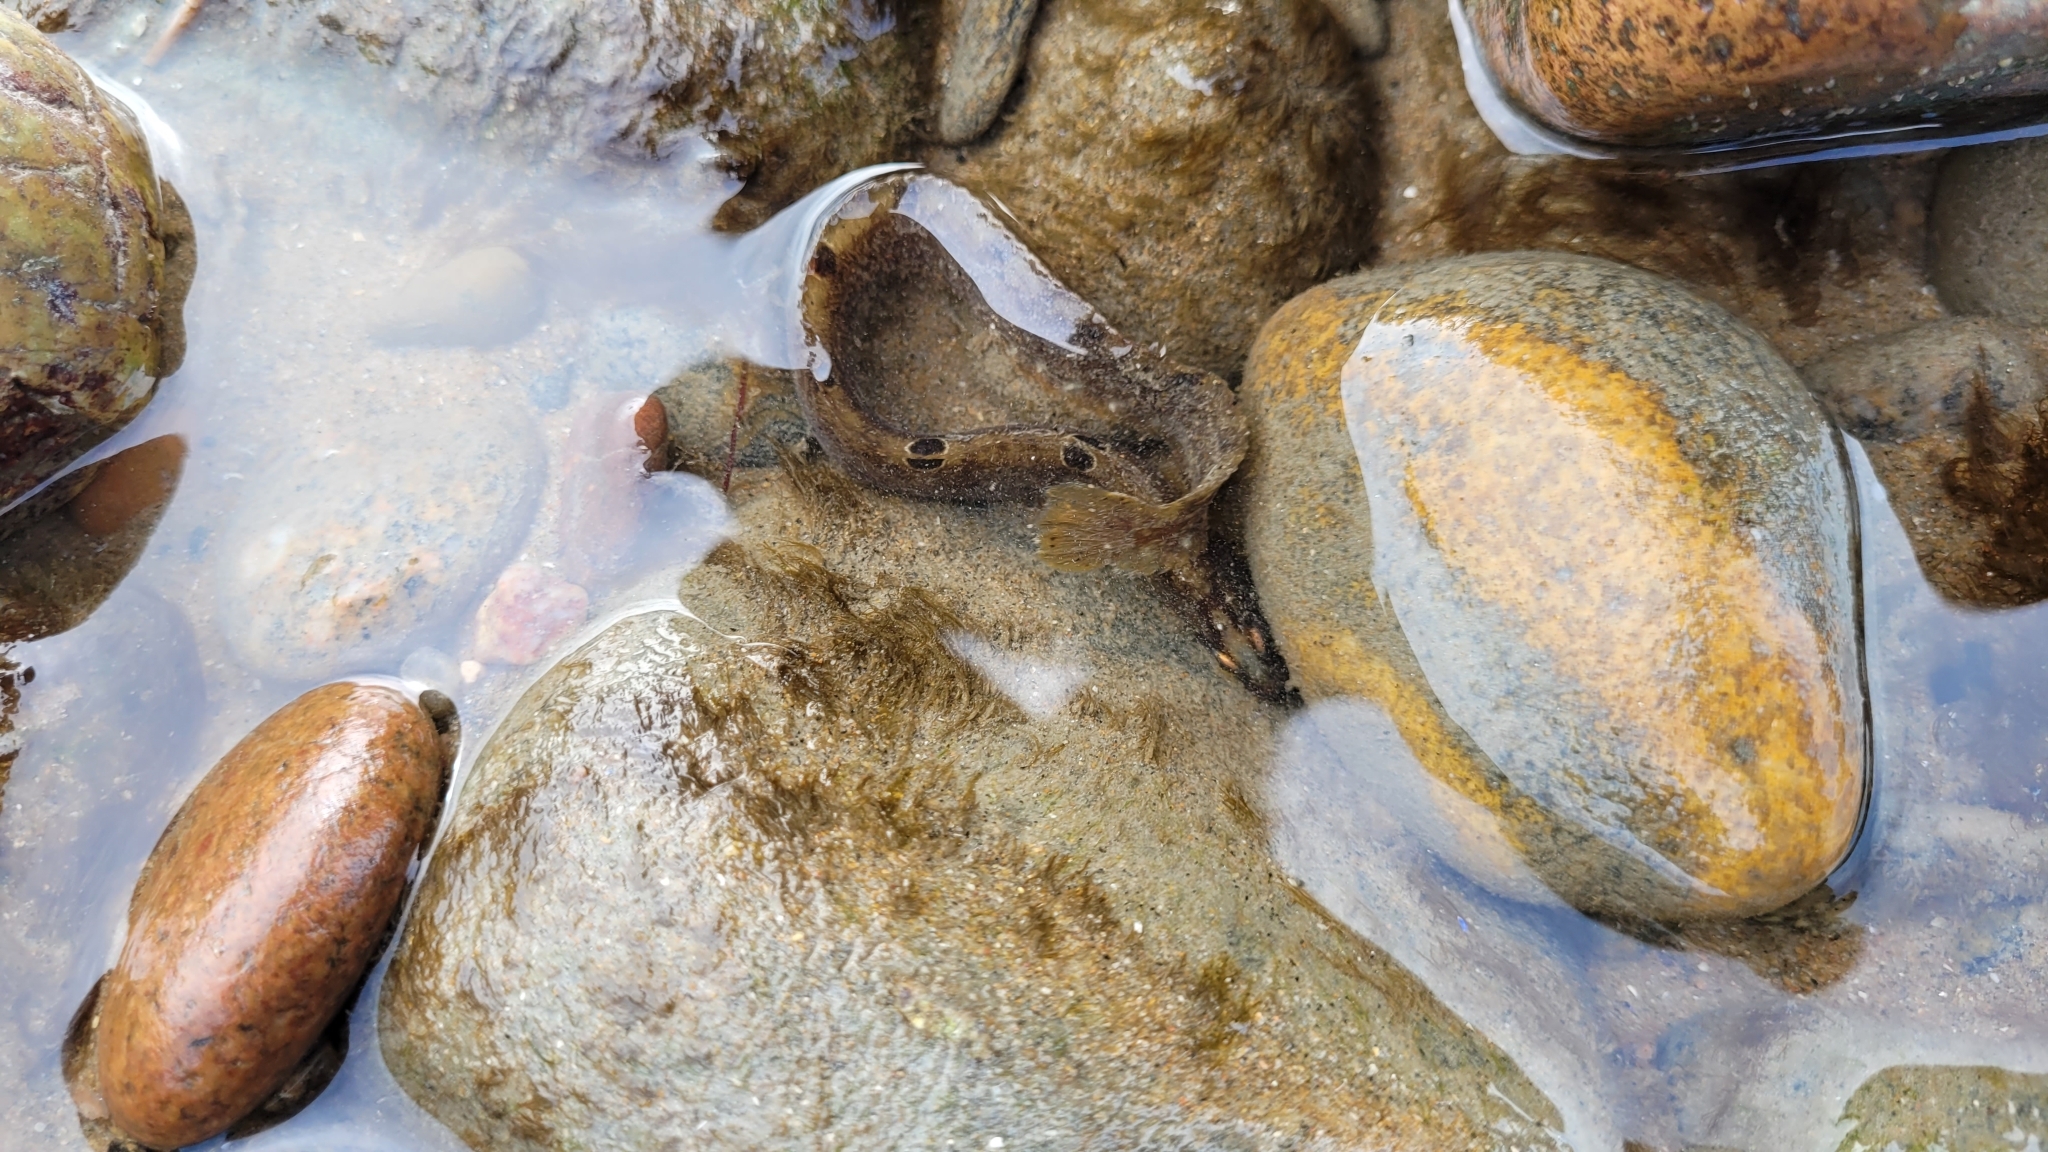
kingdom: Animalia
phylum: Chordata
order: Perciformes
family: Pholidae
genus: Pholis
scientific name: Pholis gunnellus
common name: Butterfish
